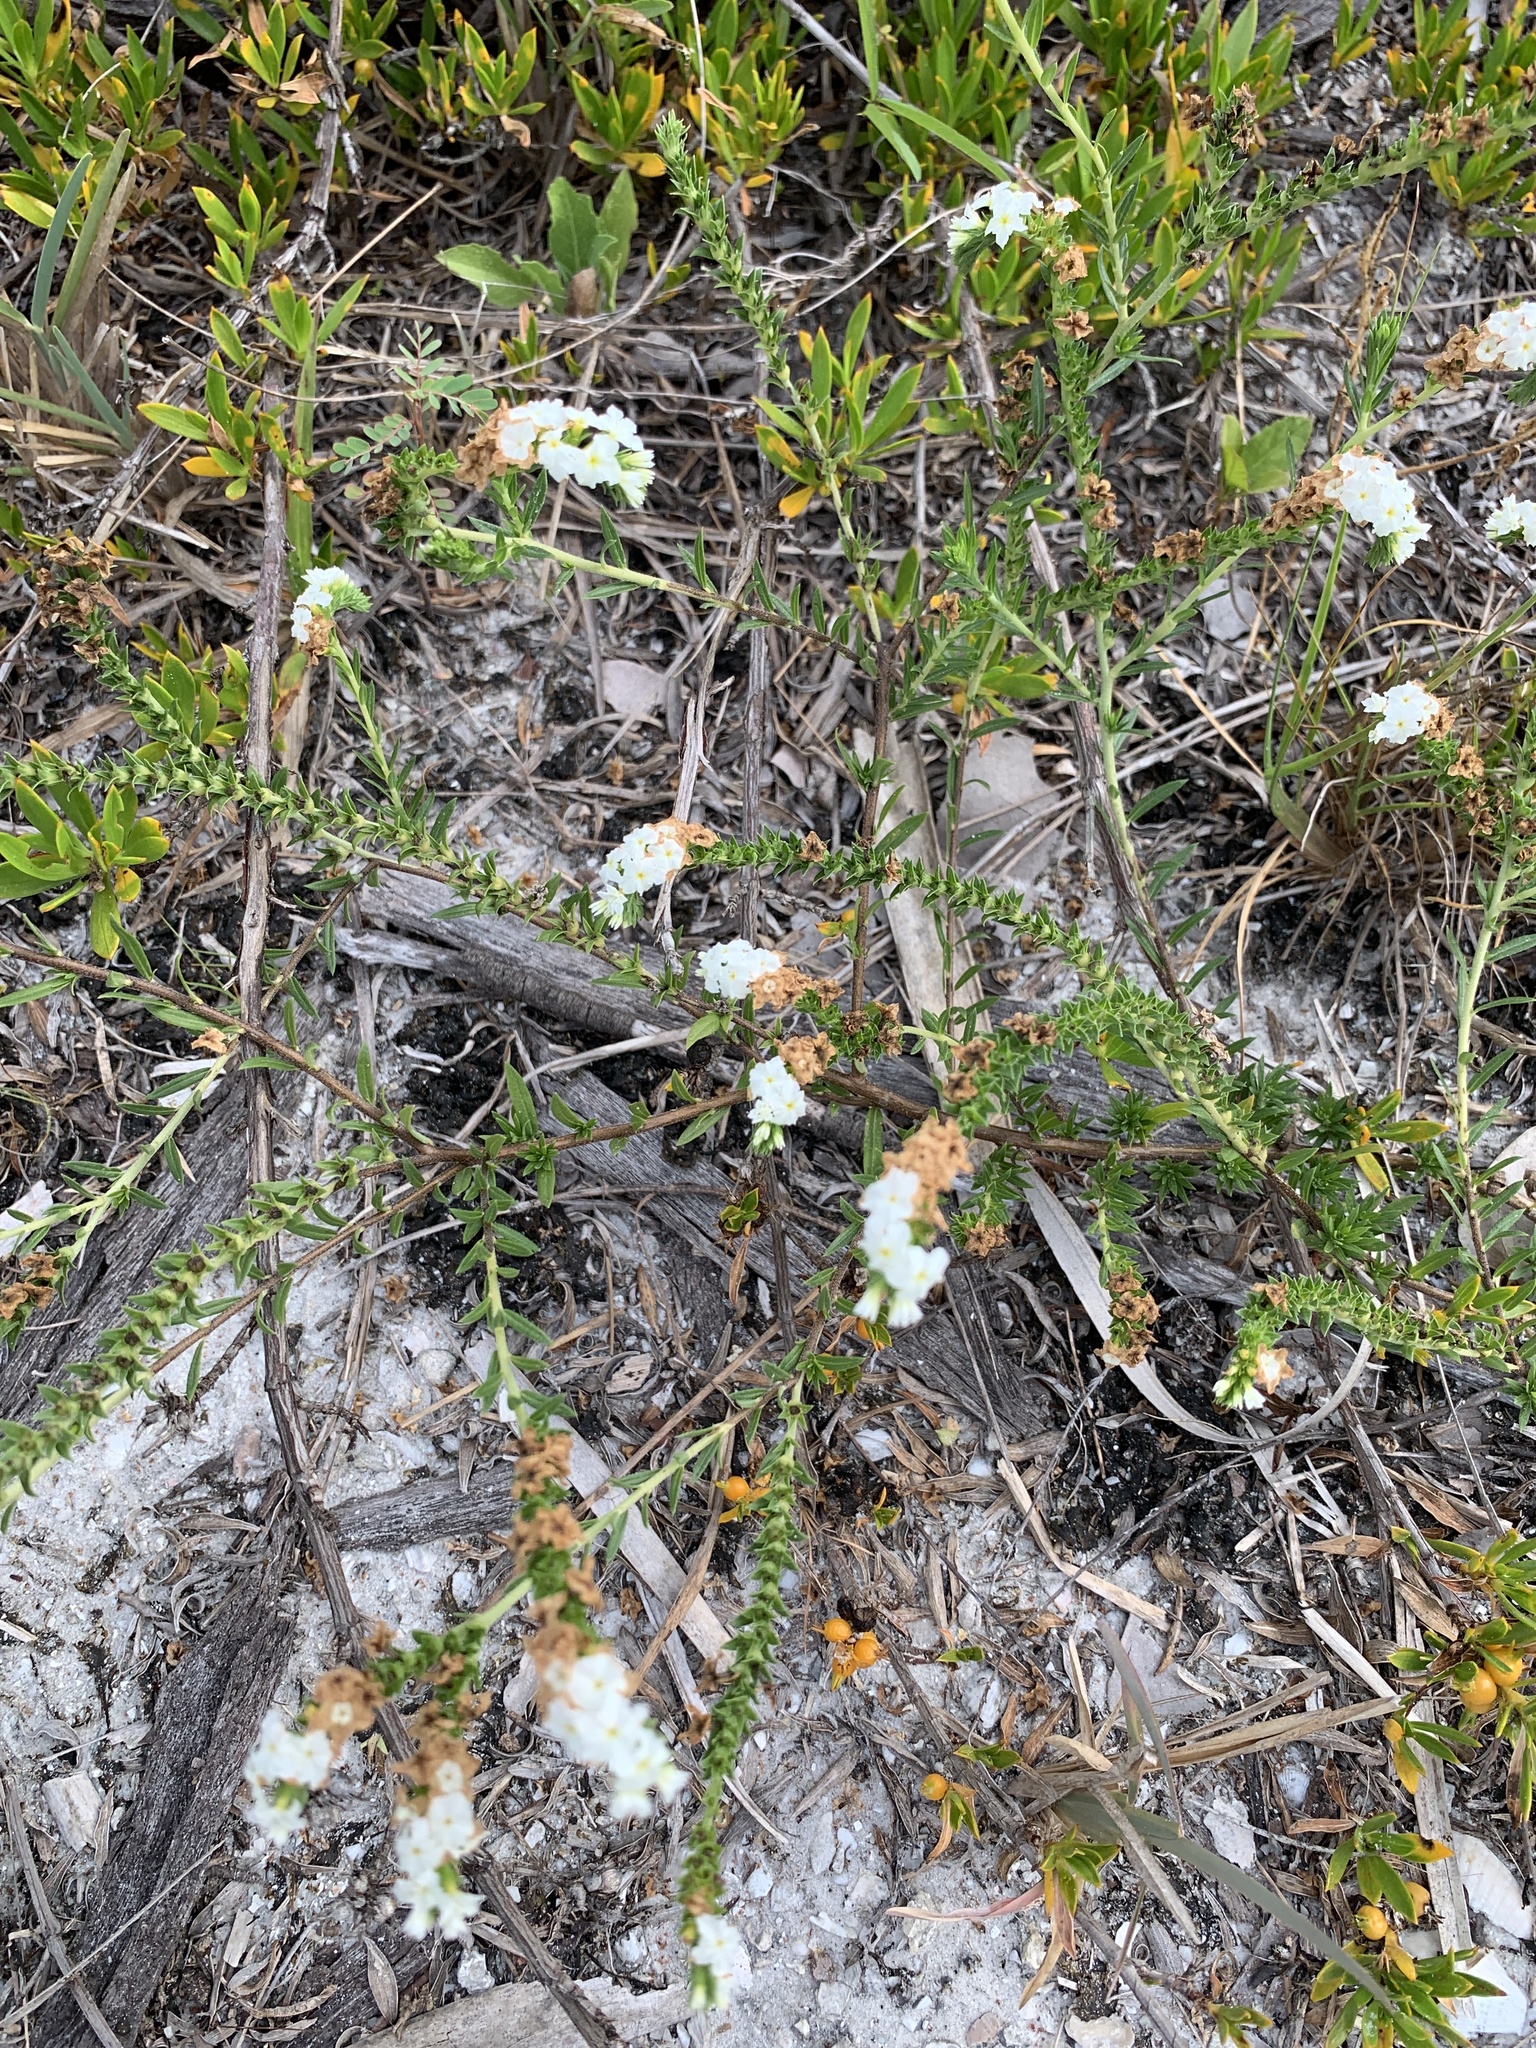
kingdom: Plantae
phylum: Tracheophyta
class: Magnoliopsida
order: Boraginales
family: Heliotropiaceae
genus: Euploca
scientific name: Euploca polyphylla
